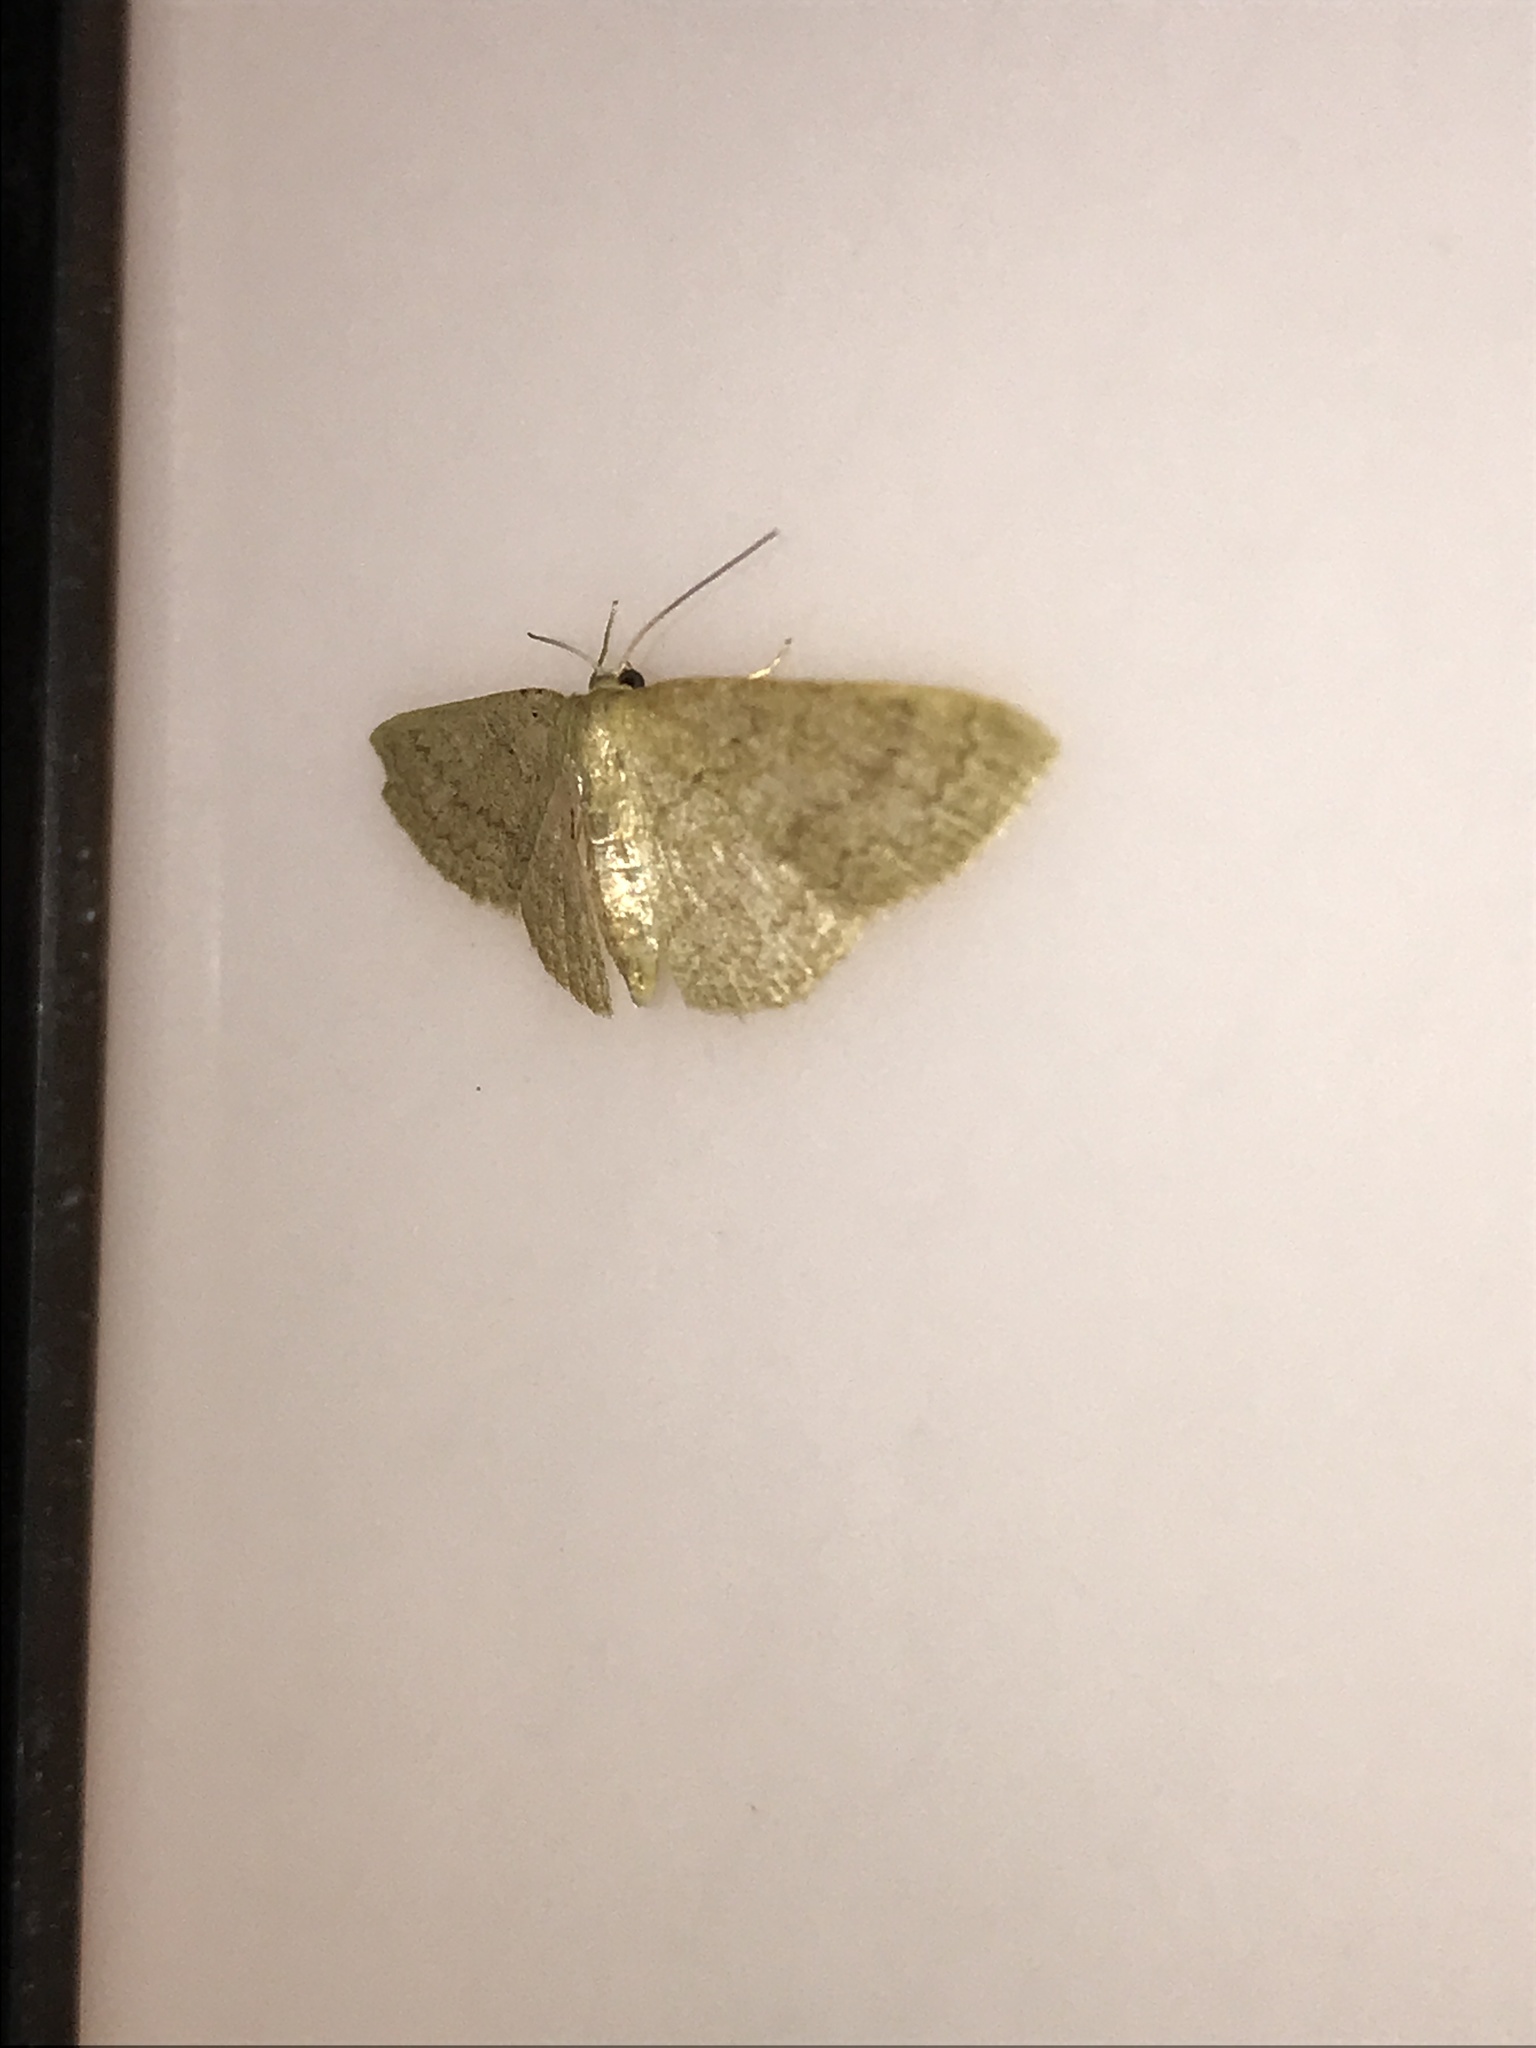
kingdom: Animalia
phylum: Arthropoda
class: Insecta
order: Lepidoptera
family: Geometridae
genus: Pleuroprucha
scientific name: Pleuroprucha insulsaria
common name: Common tan wave
